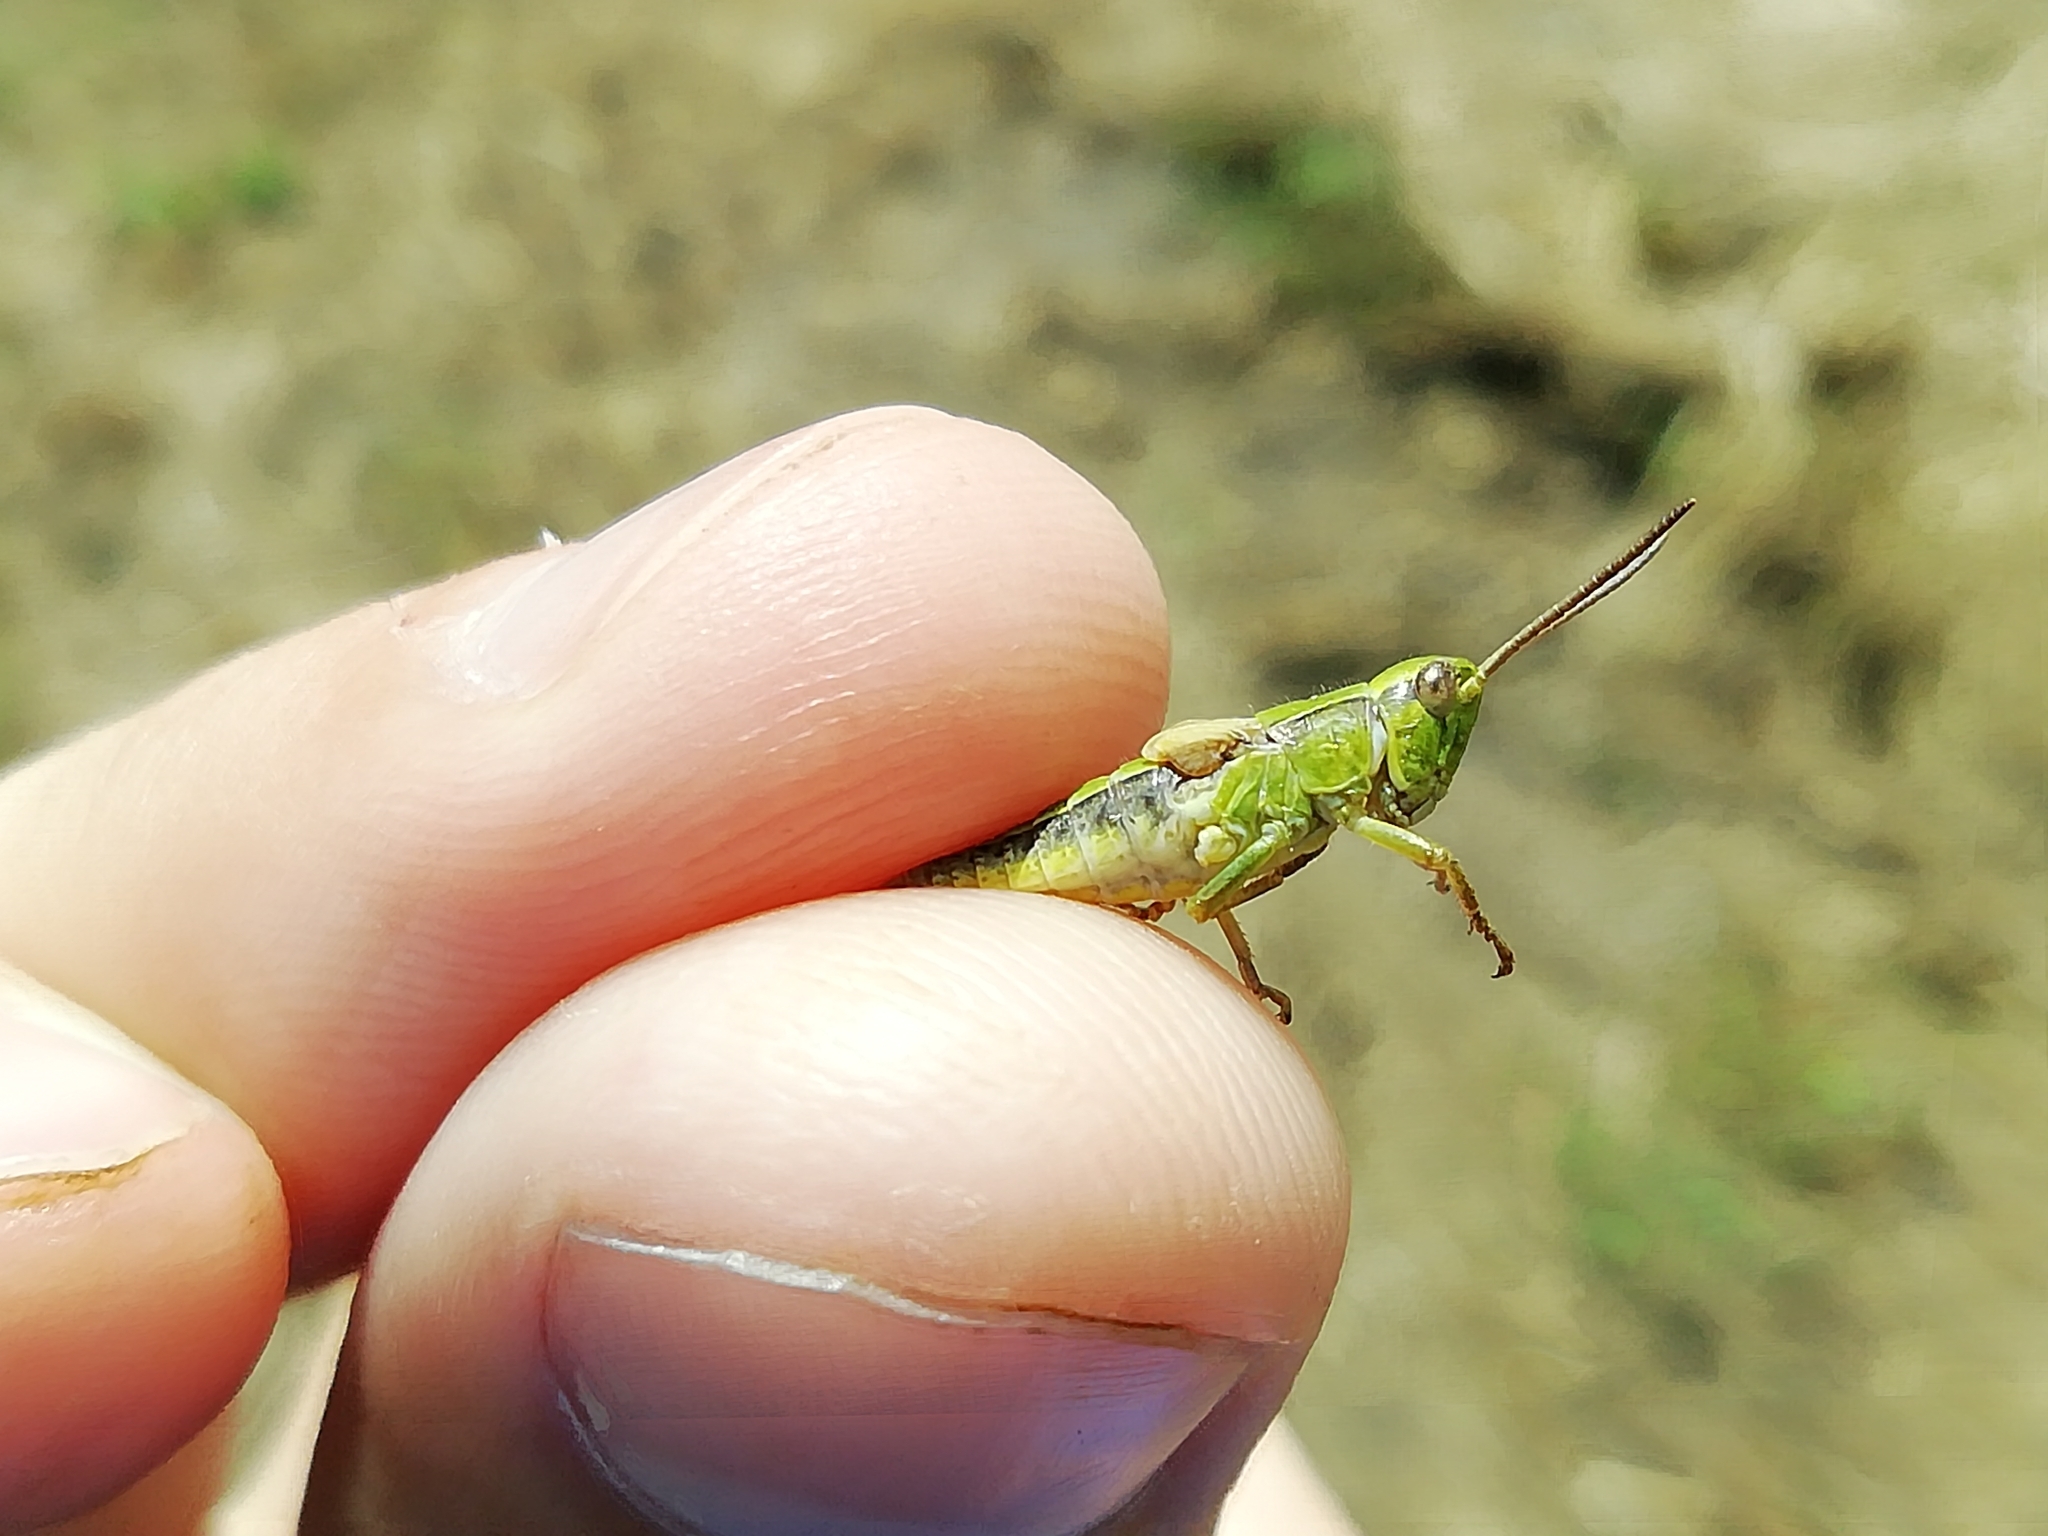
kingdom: Animalia
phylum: Arthropoda
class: Insecta
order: Orthoptera
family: Acrididae
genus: Chorthippus
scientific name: Chorthippus fallax
